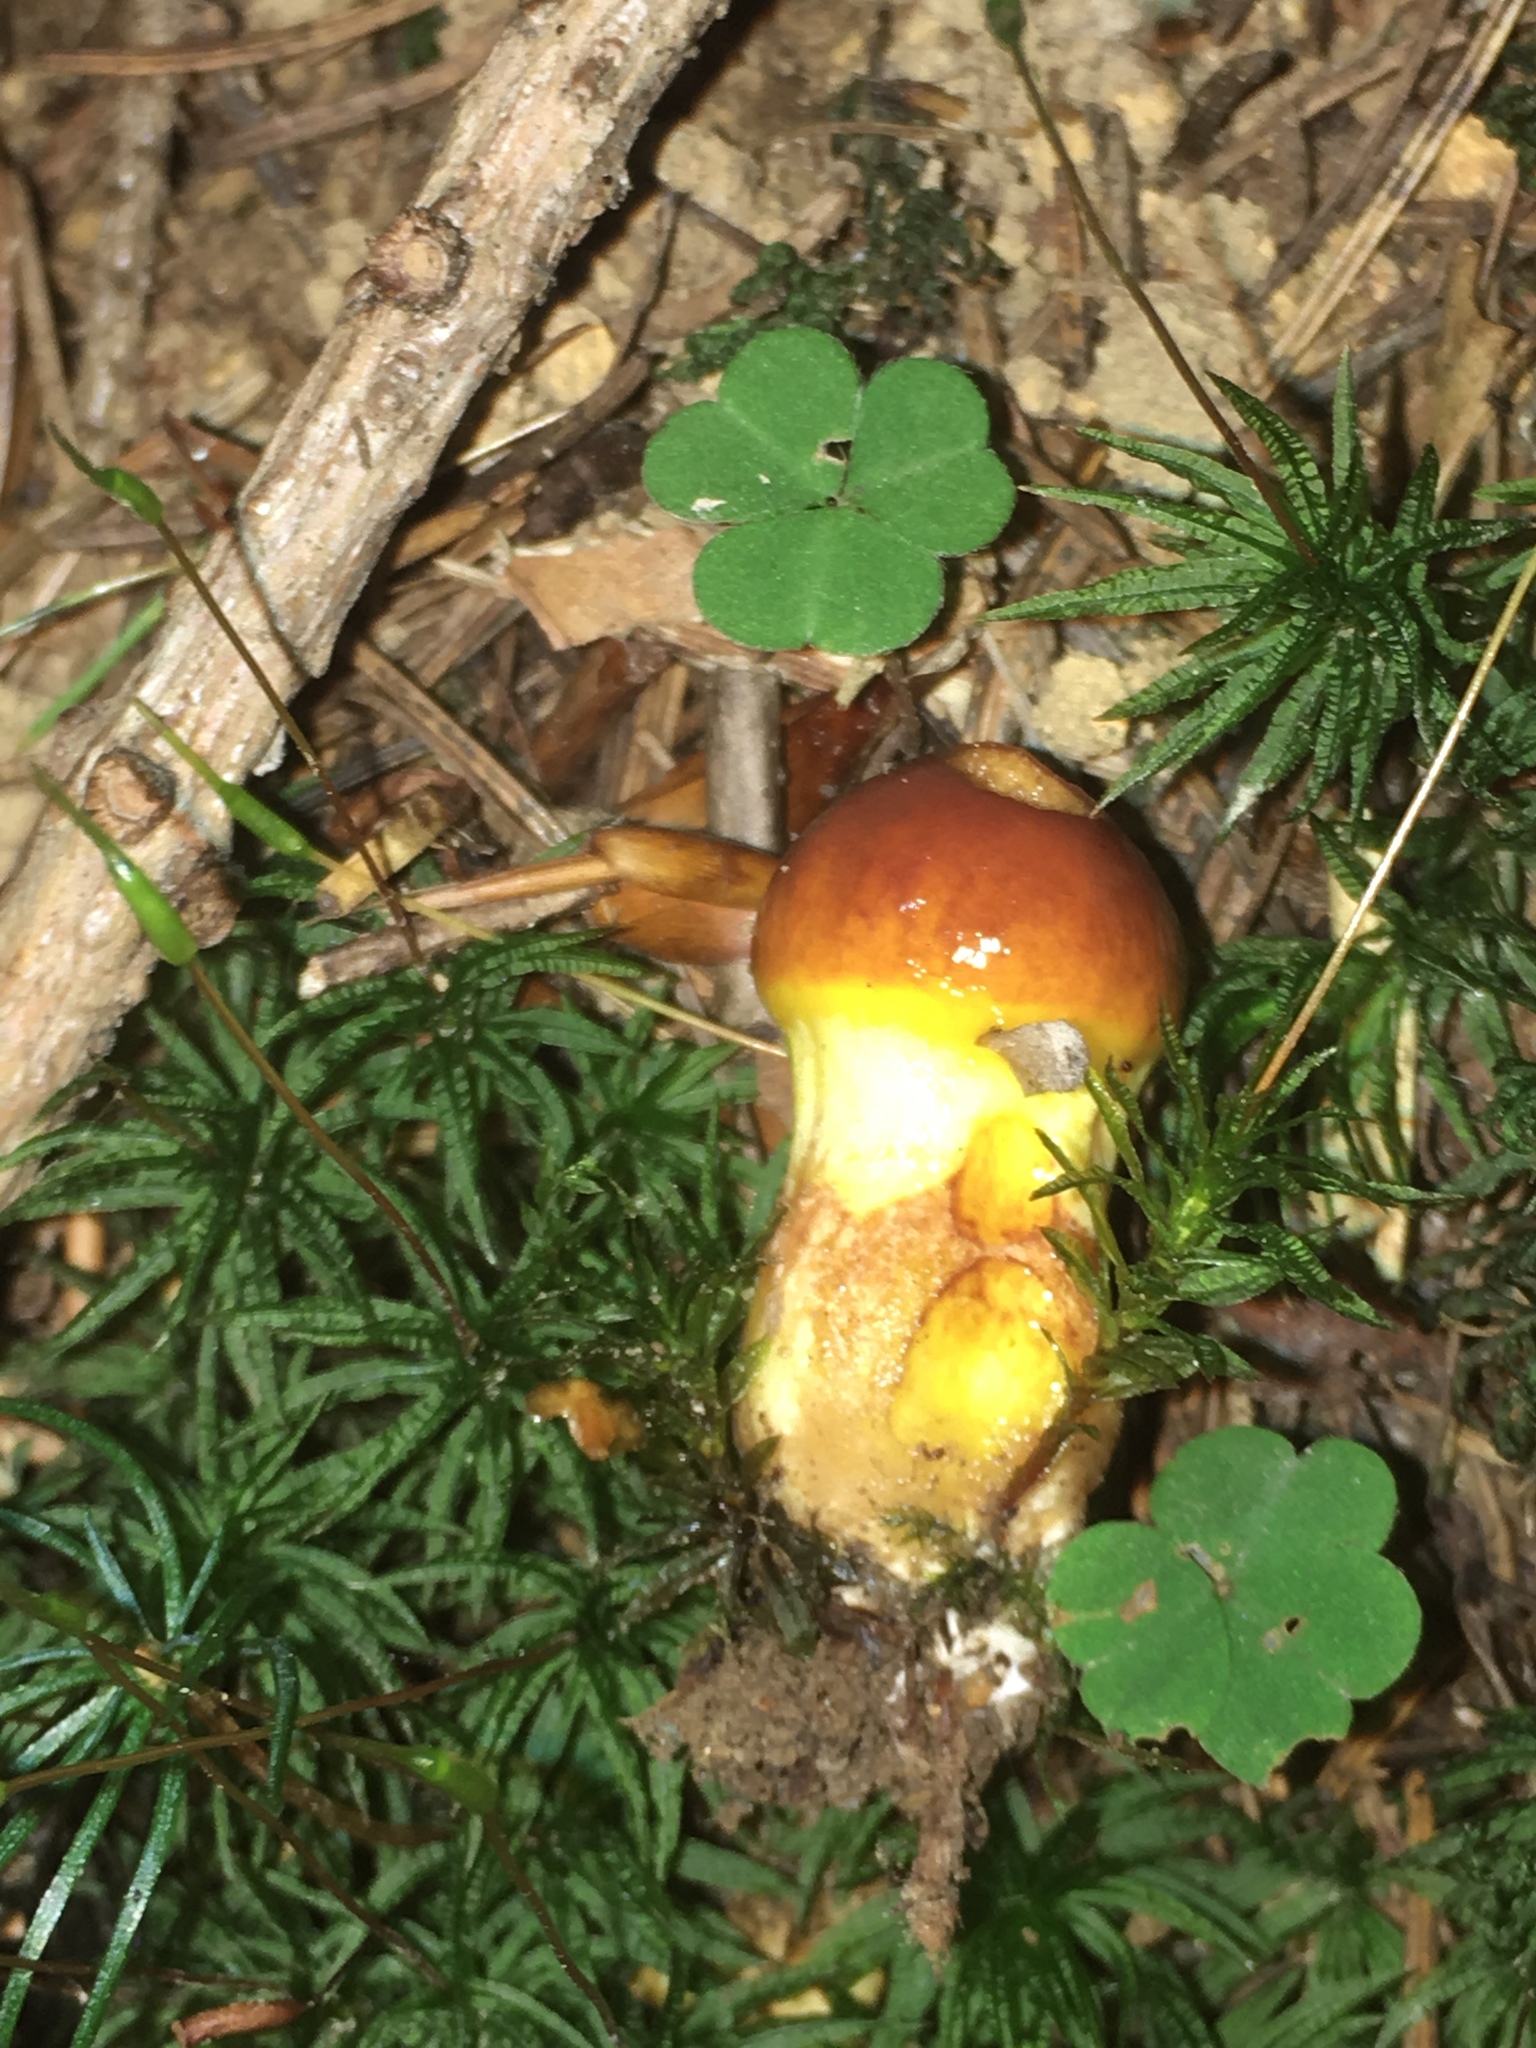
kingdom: Fungi
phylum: Basidiomycota
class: Agaricomycetes
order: Boletales
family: Suillaceae
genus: Suillus
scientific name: Suillus grevillei
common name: Larch bolete
